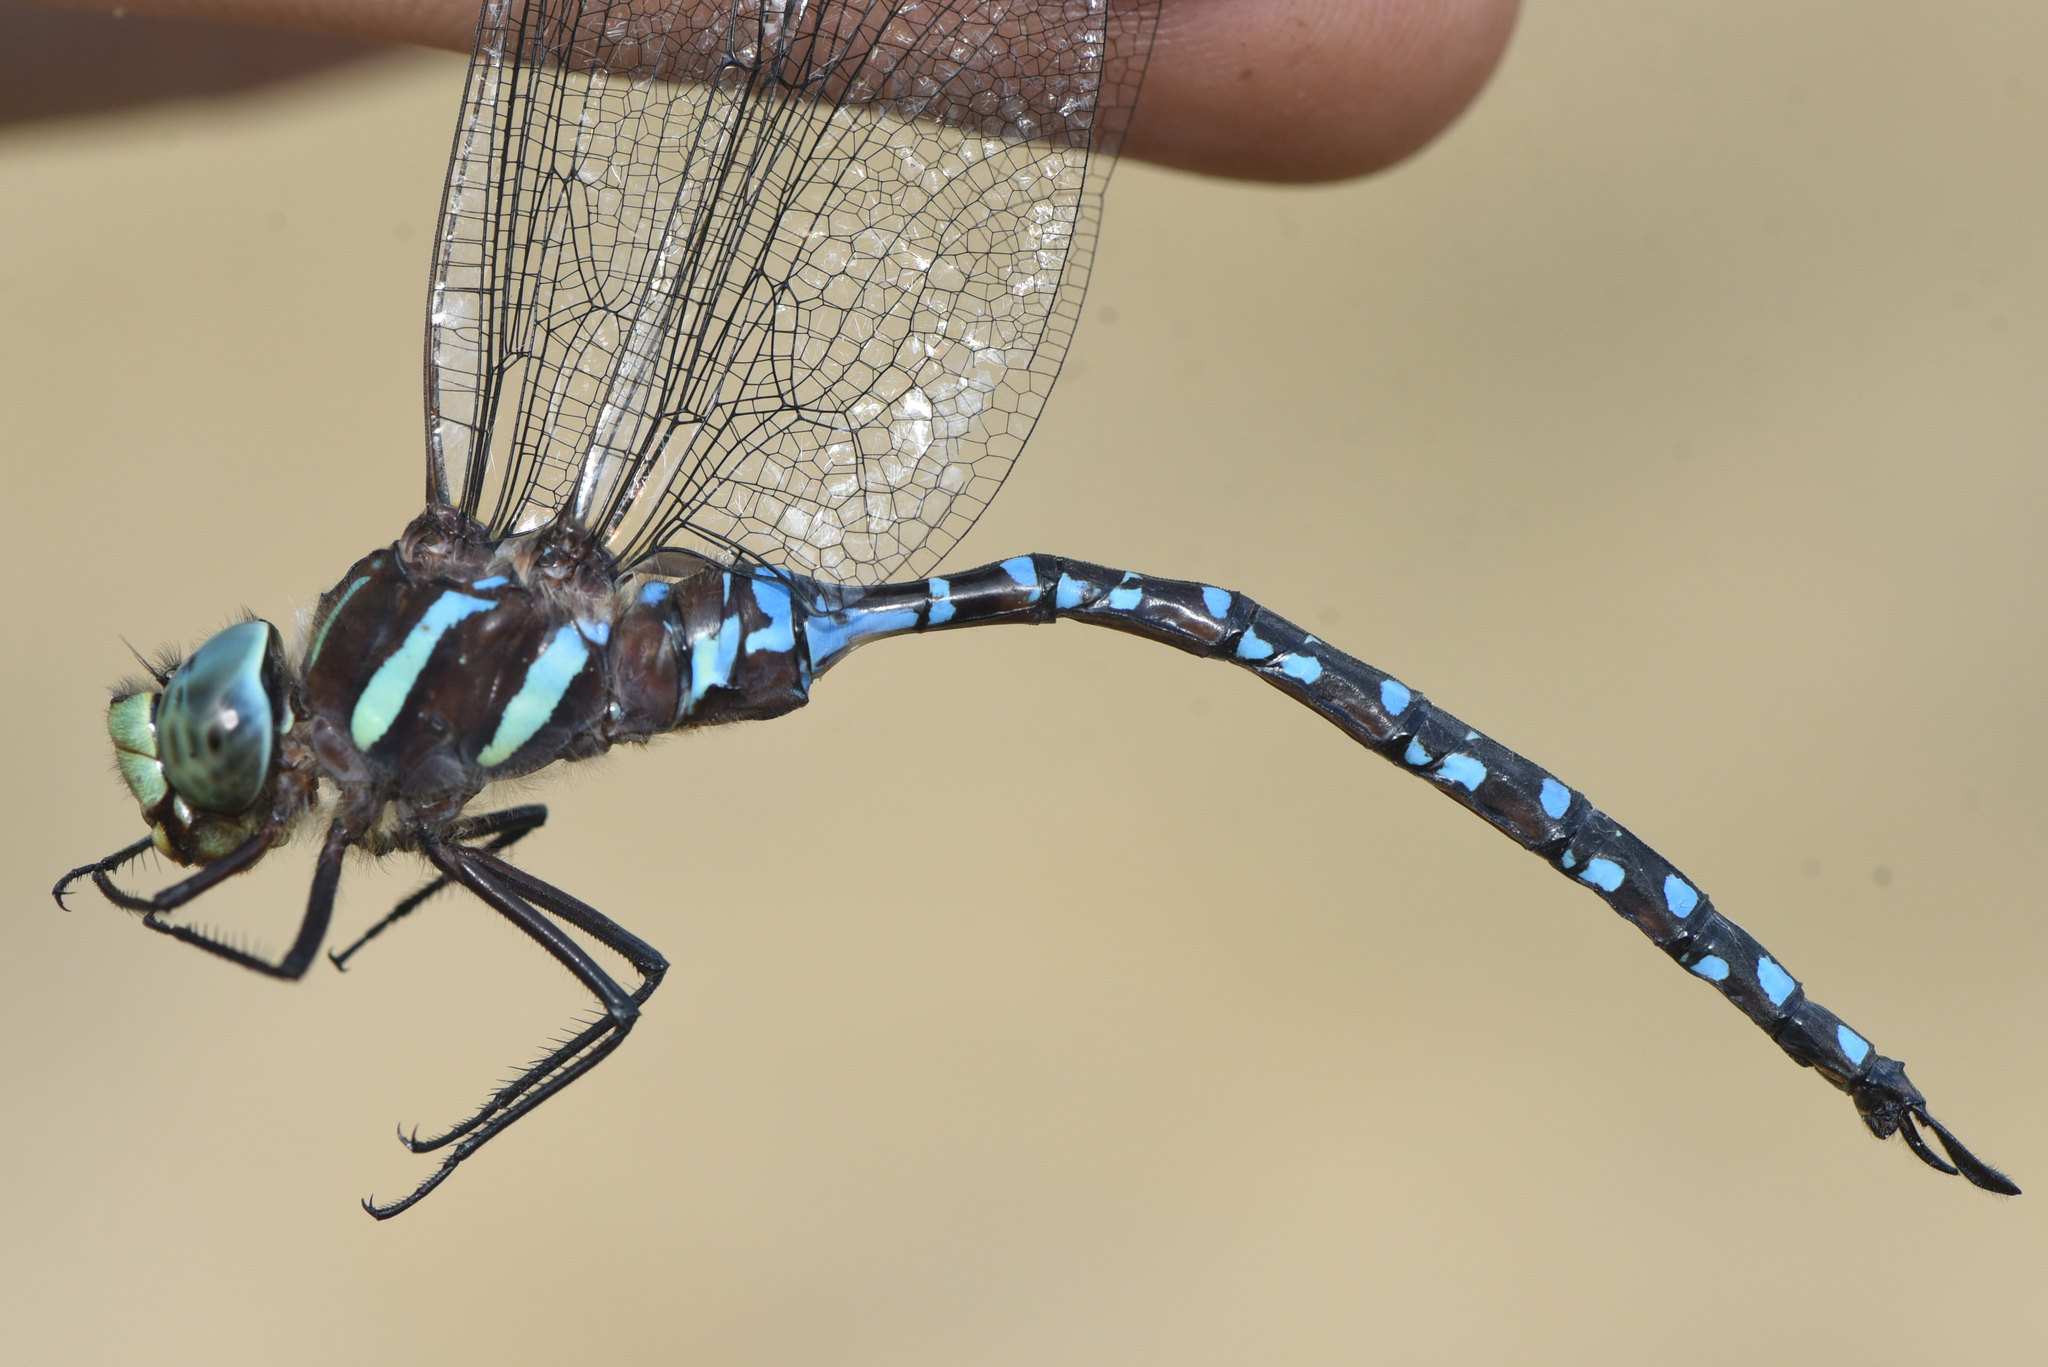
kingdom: Animalia
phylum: Arthropoda
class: Insecta
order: Odonata
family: Aeshnidae
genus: Aeshna
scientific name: Aeshna tuberculifera
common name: Aeschne à tubercules
